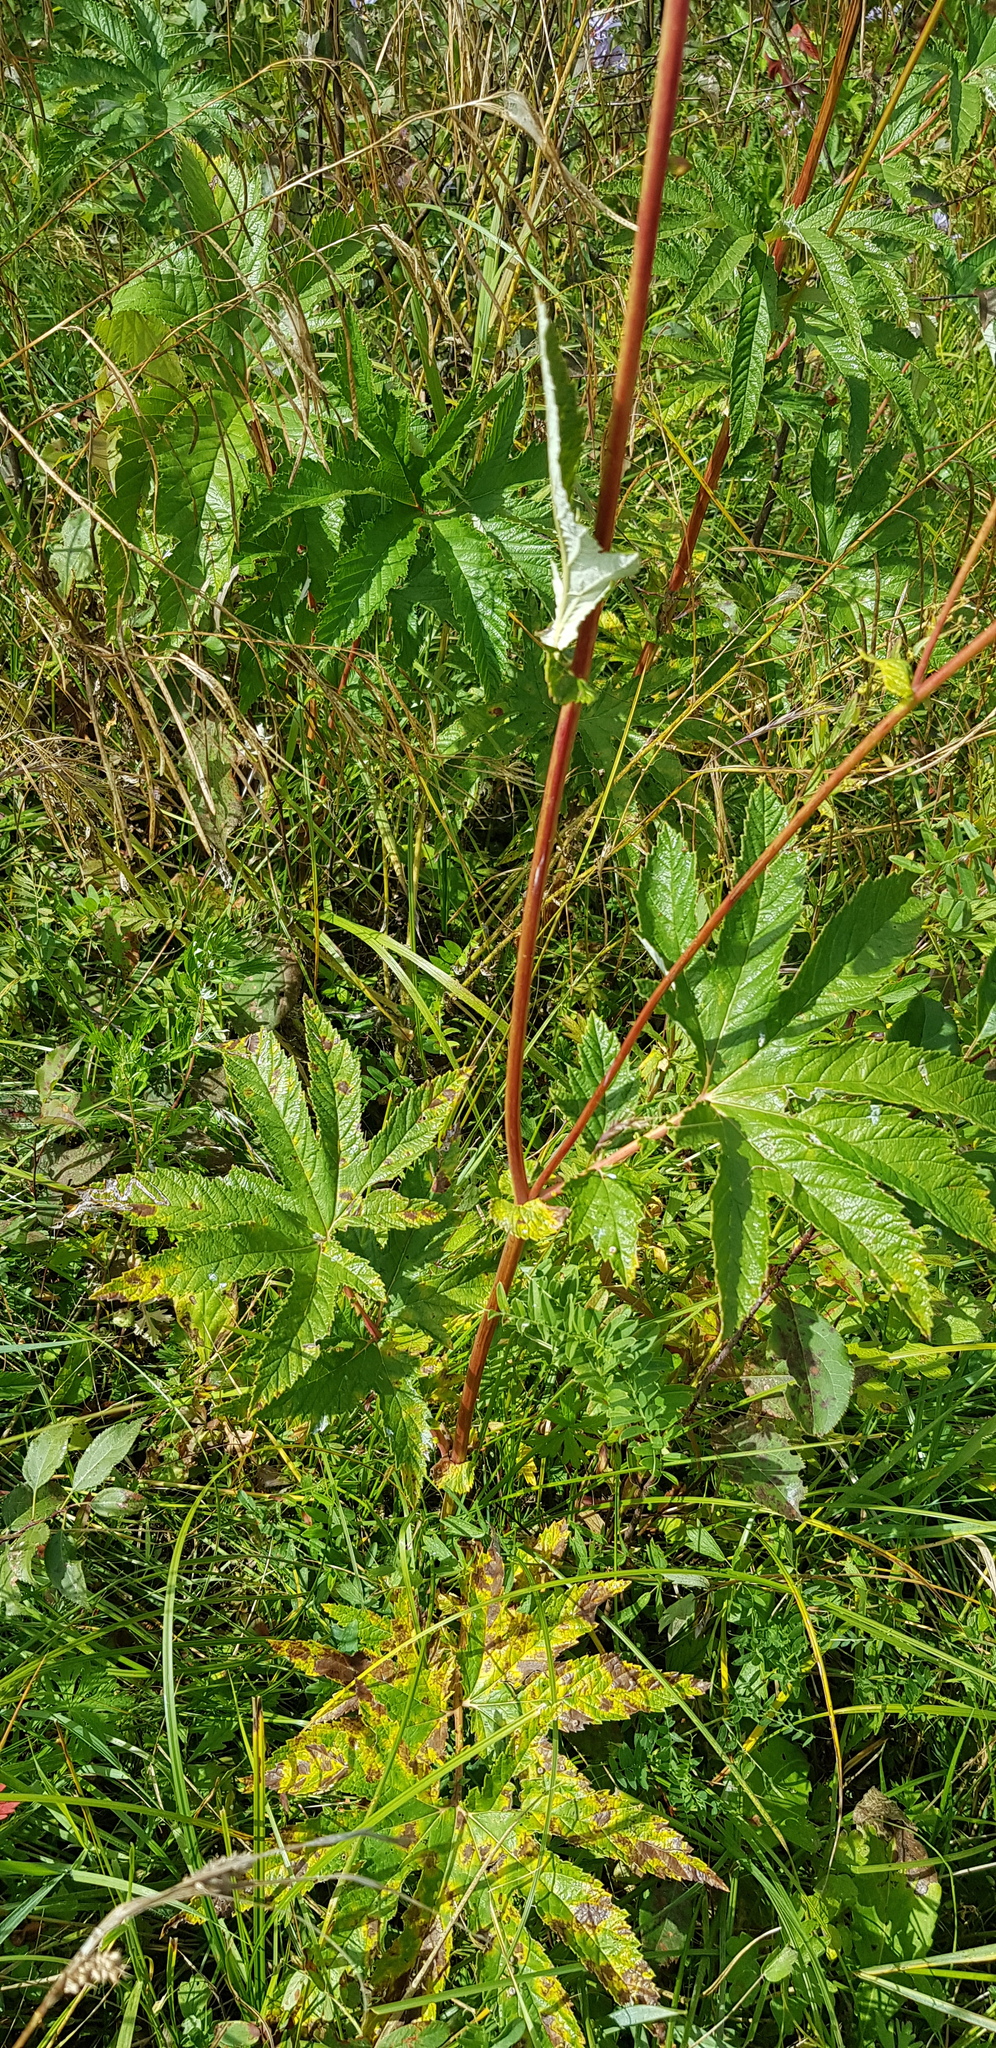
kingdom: Plantae
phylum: Tracheophyta
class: Magnoliopsida
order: Rosales
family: Rosaceae
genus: Filipendula
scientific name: Filipendula digitata
